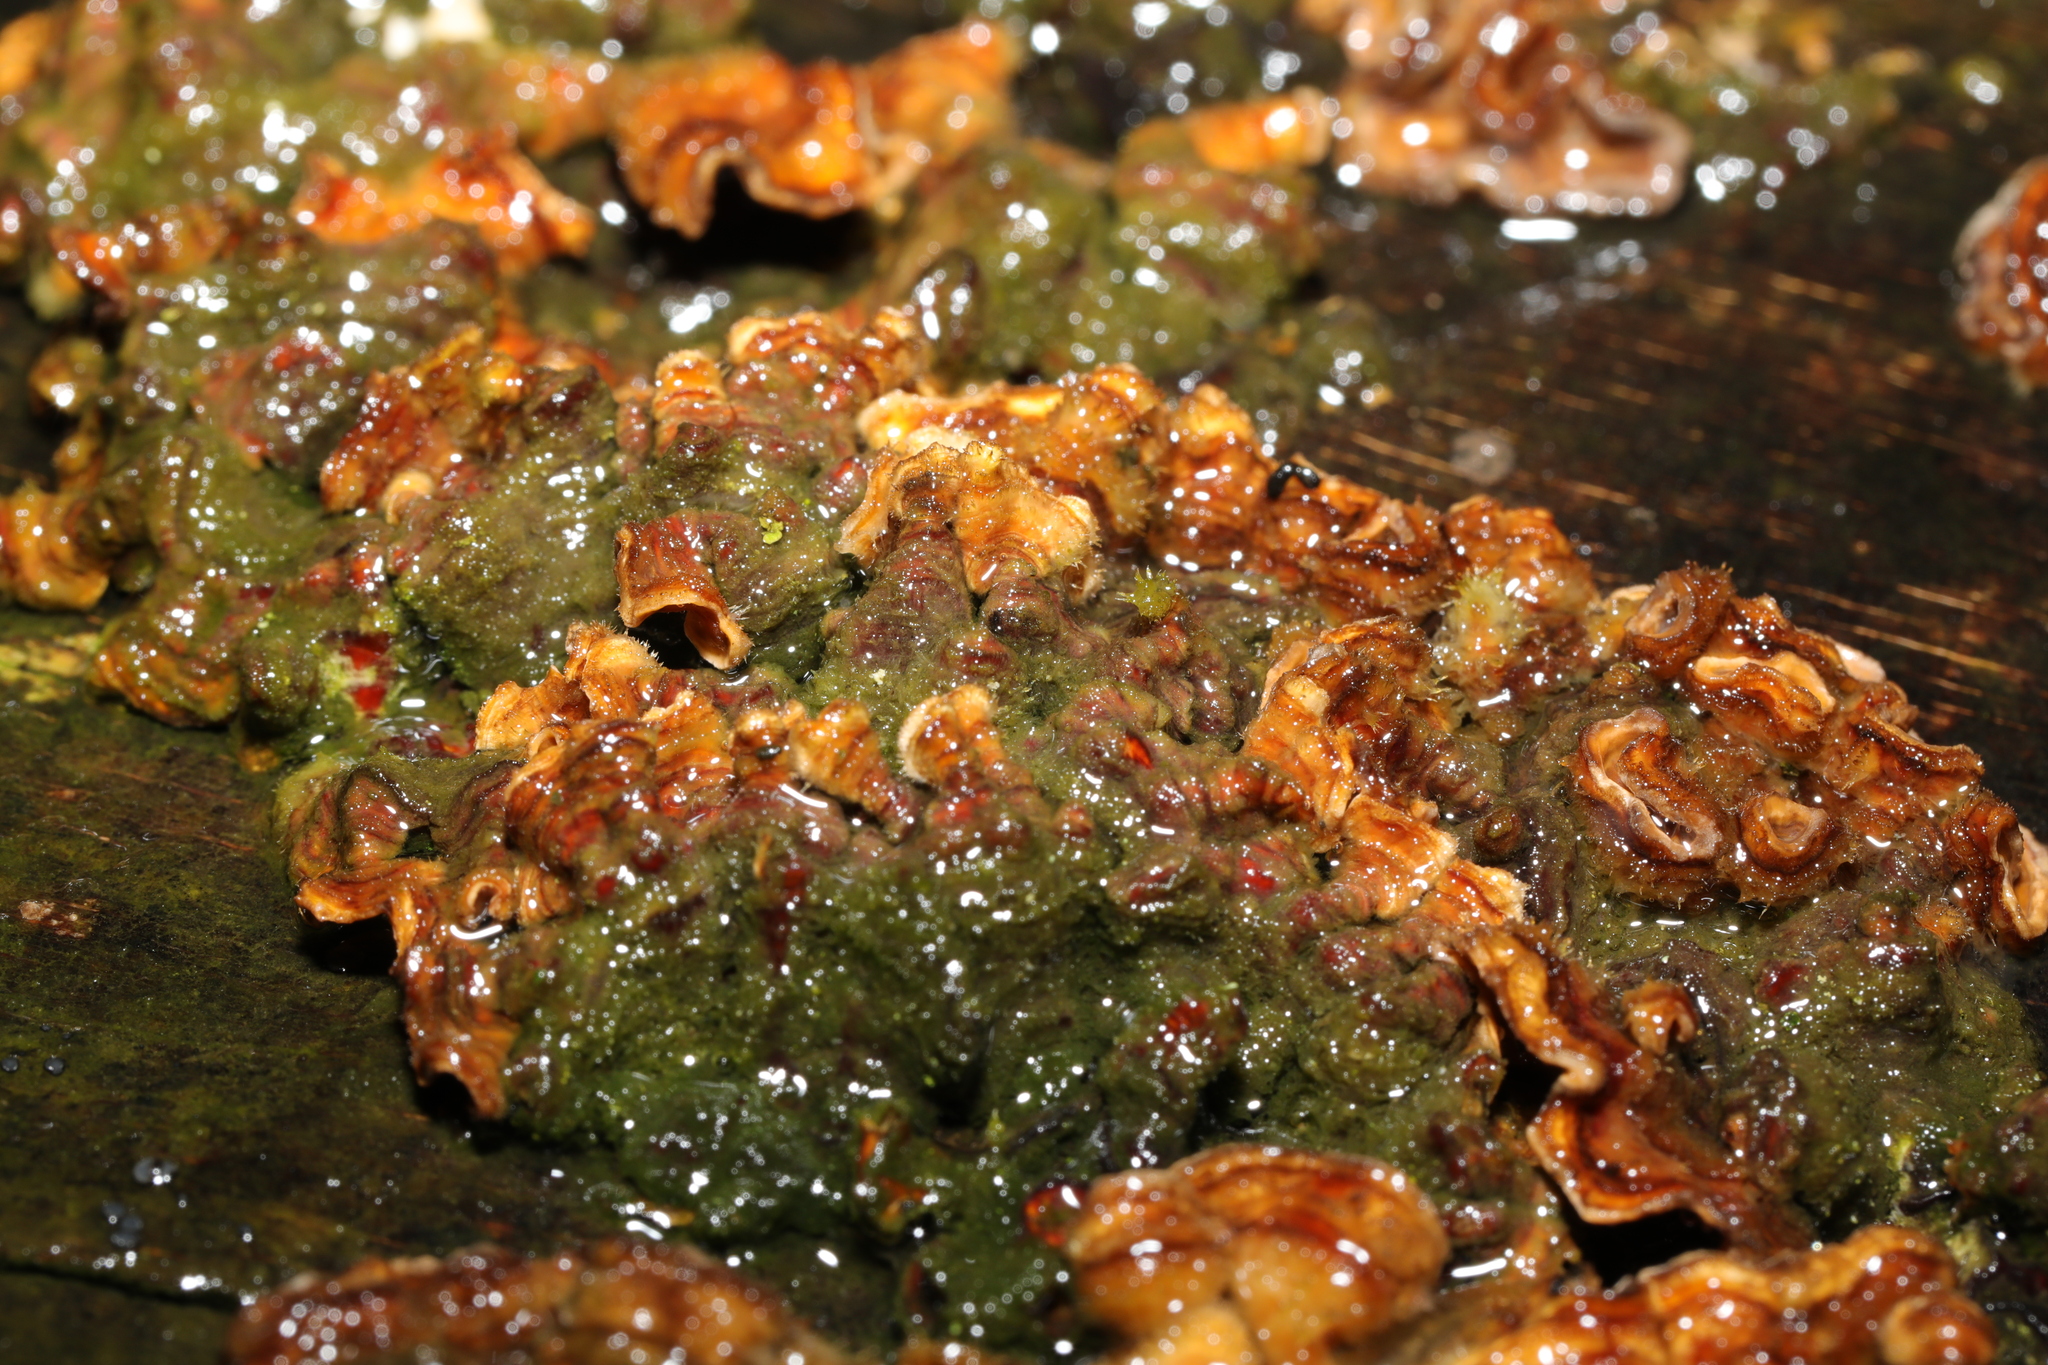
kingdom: Fungi
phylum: Basidiomycota
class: Agaricomycetes
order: Russulales
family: Stereaceae
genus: Stereum
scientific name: Stereum hirsutum
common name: Hairy curtain crust
